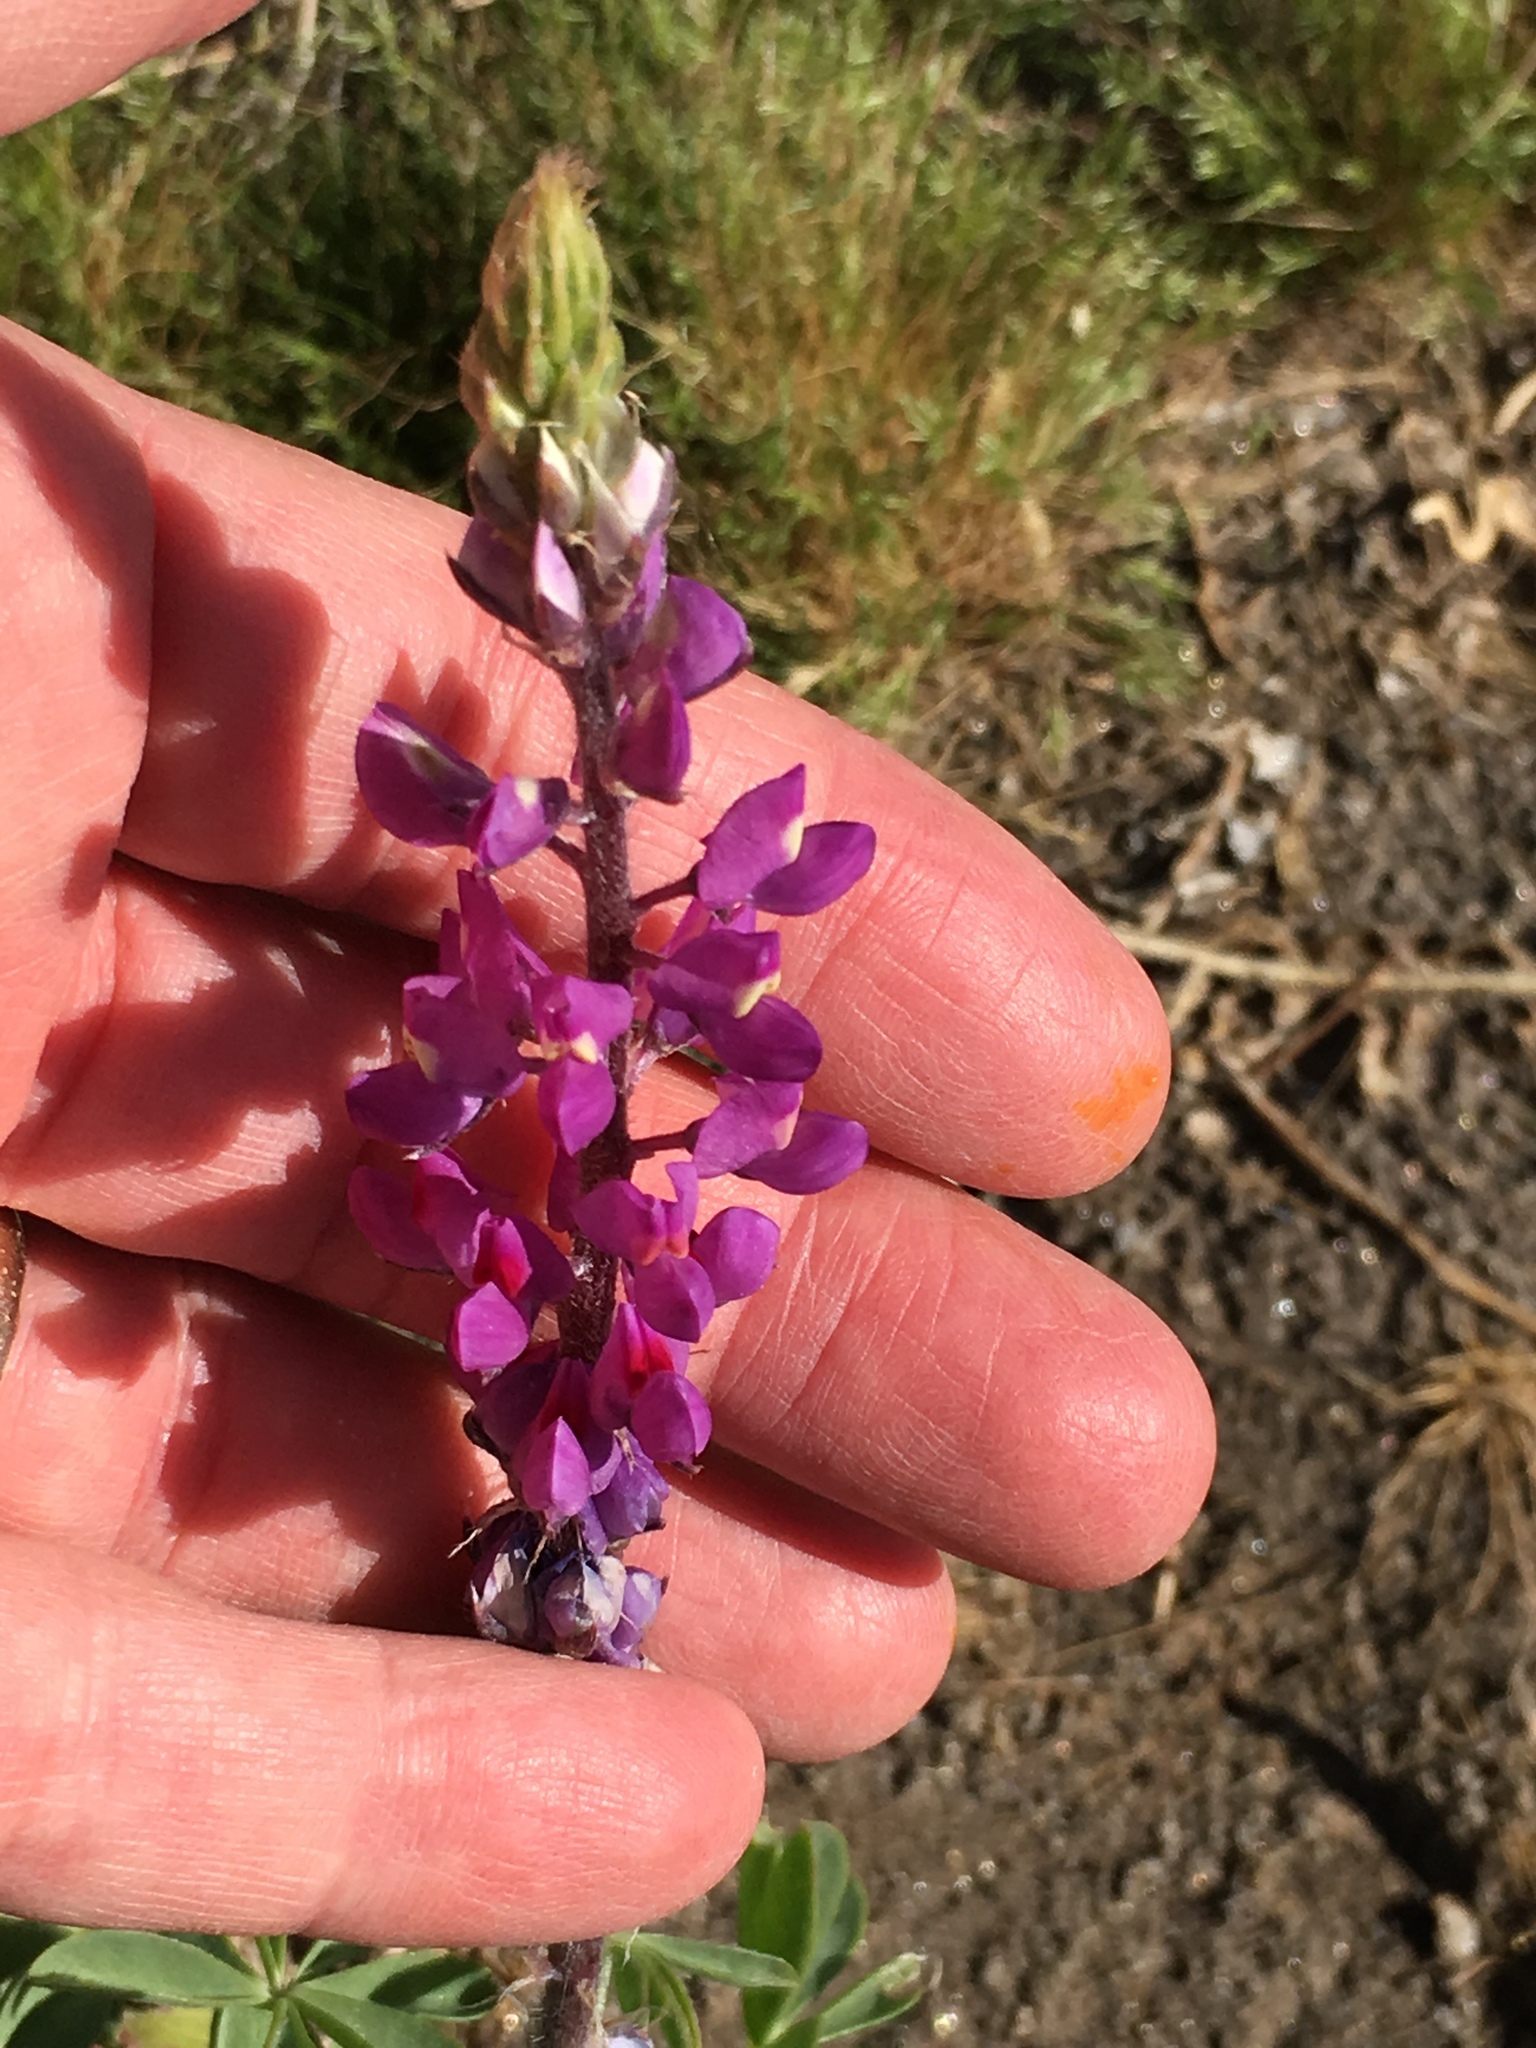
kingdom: Plantae
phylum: Tracheophyta
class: Magnoliopsida
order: Fabales
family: Fabaceae
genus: Lupinus
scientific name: Lupinus arizonicus
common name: Arizona lupine
